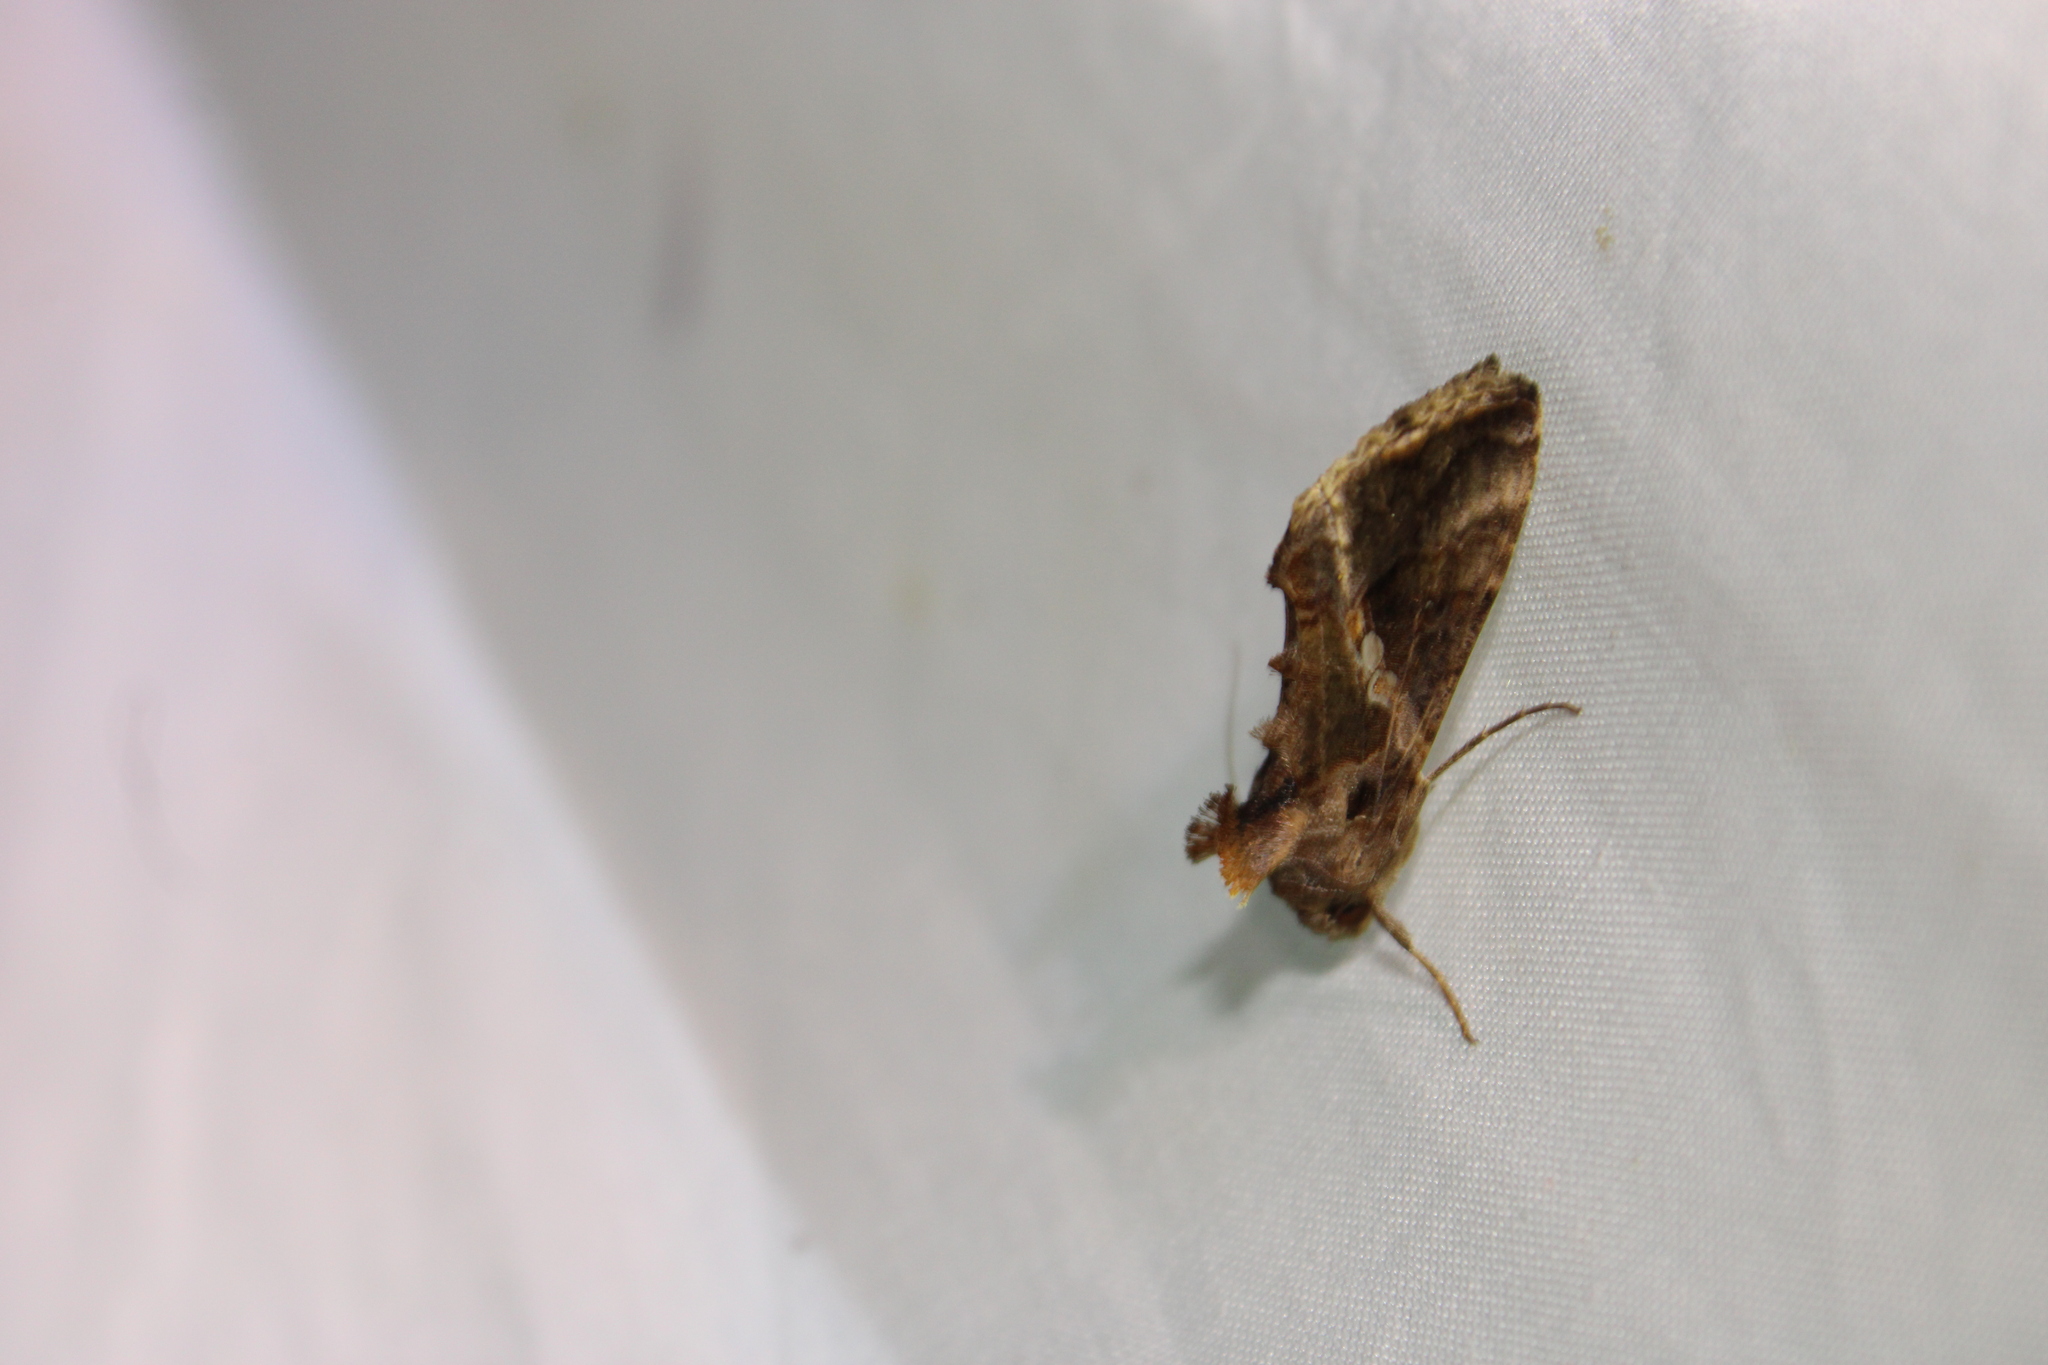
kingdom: Animalia
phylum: Arthropoda
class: Insecta
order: Lepidoptera
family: Noctuidae
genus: Chrysodeixis
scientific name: Chrysodeixis includens
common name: Cutworm moth
